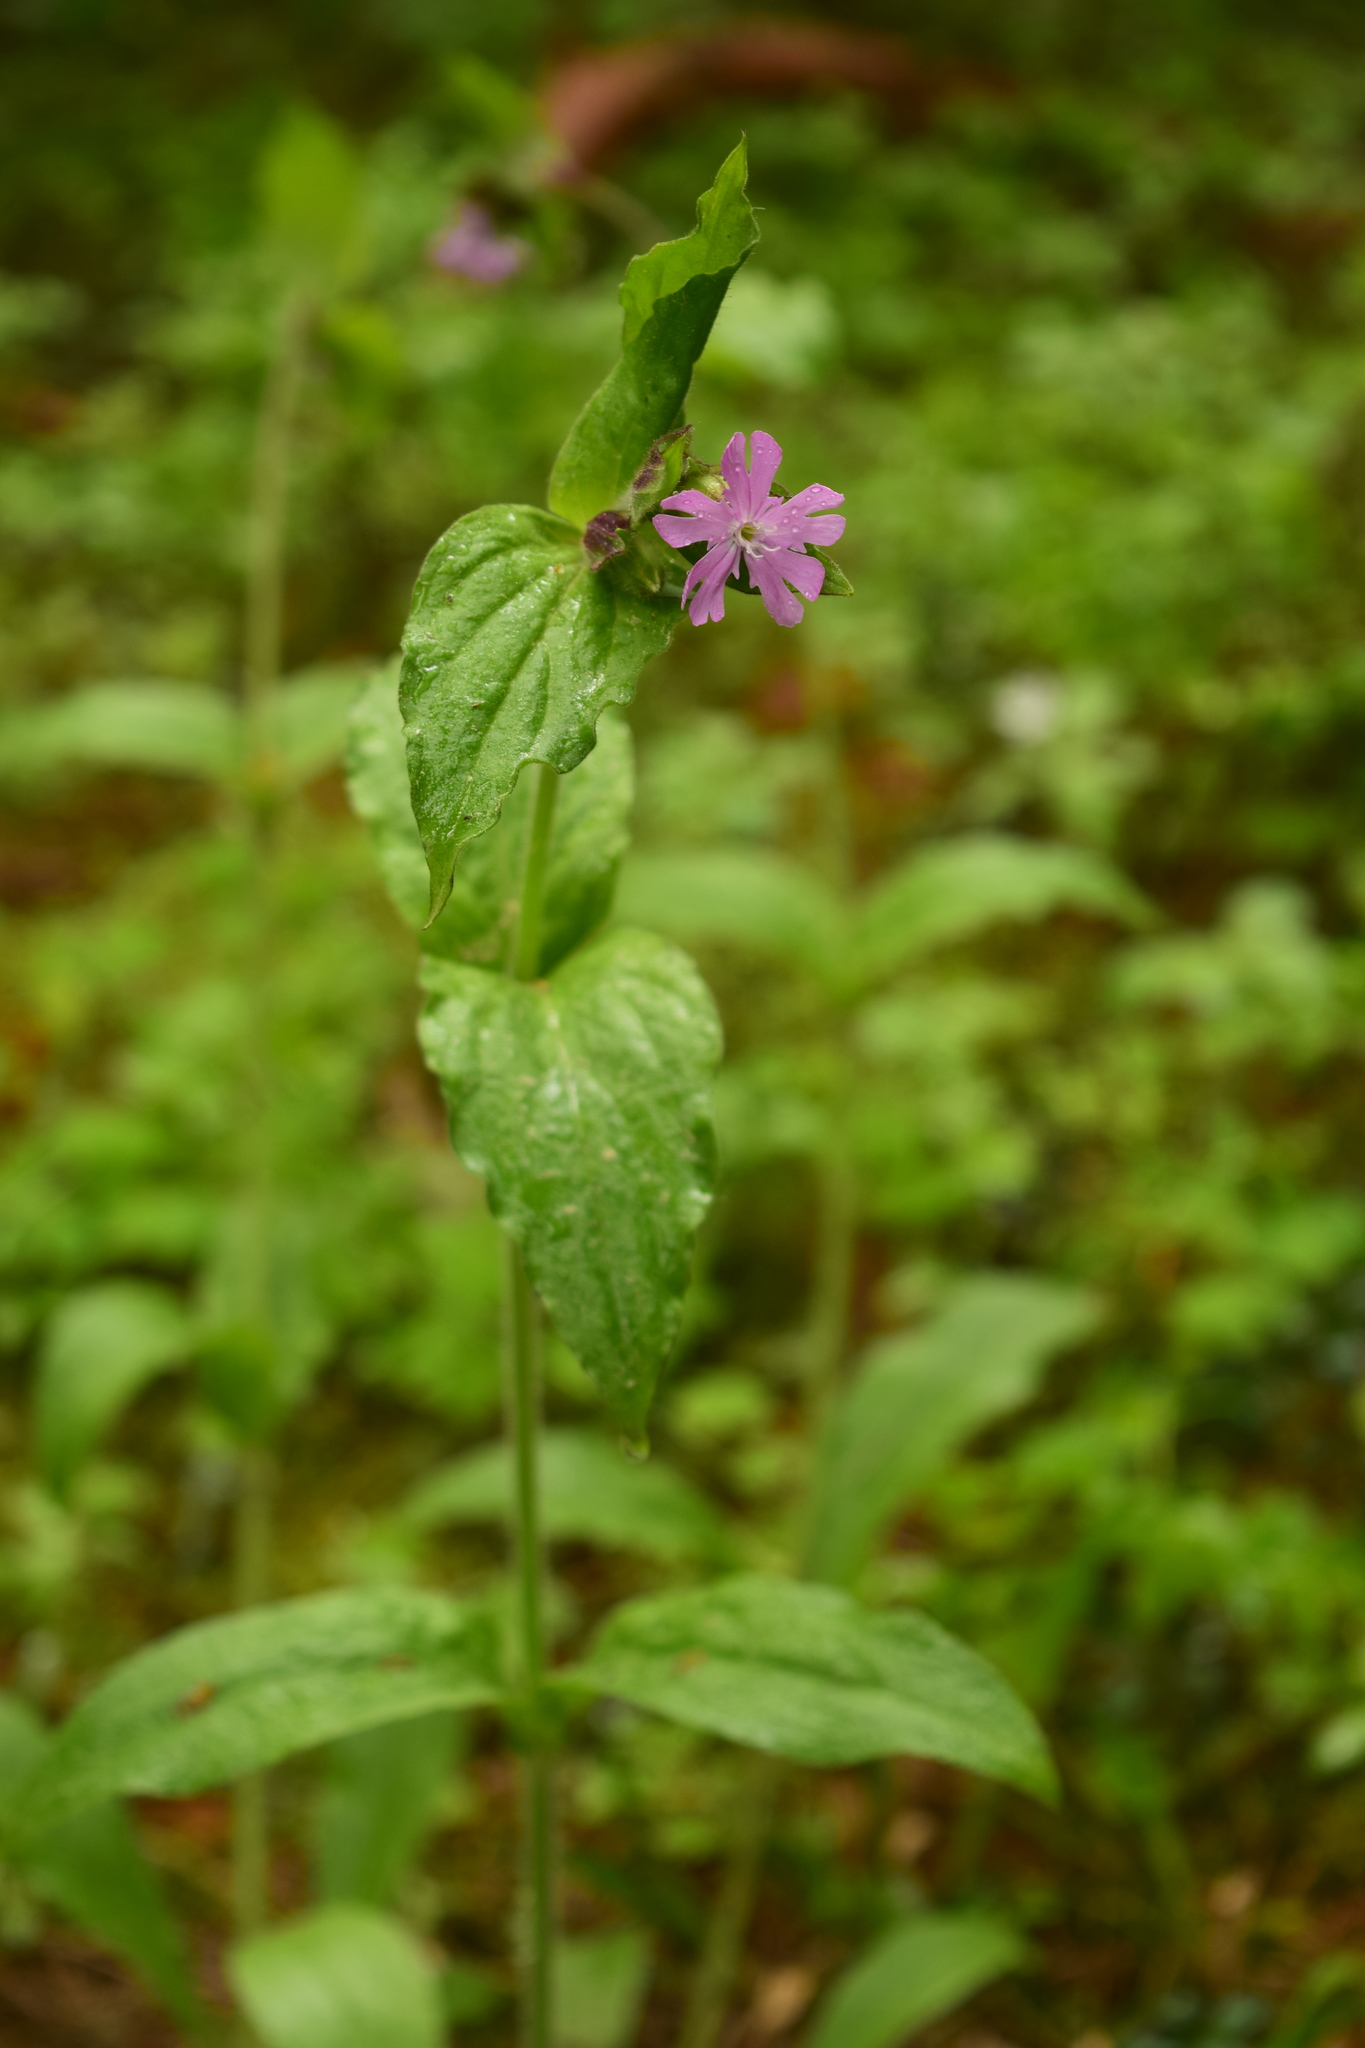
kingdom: Plantae
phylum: Tracheophyta
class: Magnoliopsida
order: Caryophyllales
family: Caryophyllaceae
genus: Silene
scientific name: Silene dioica
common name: Red campion
